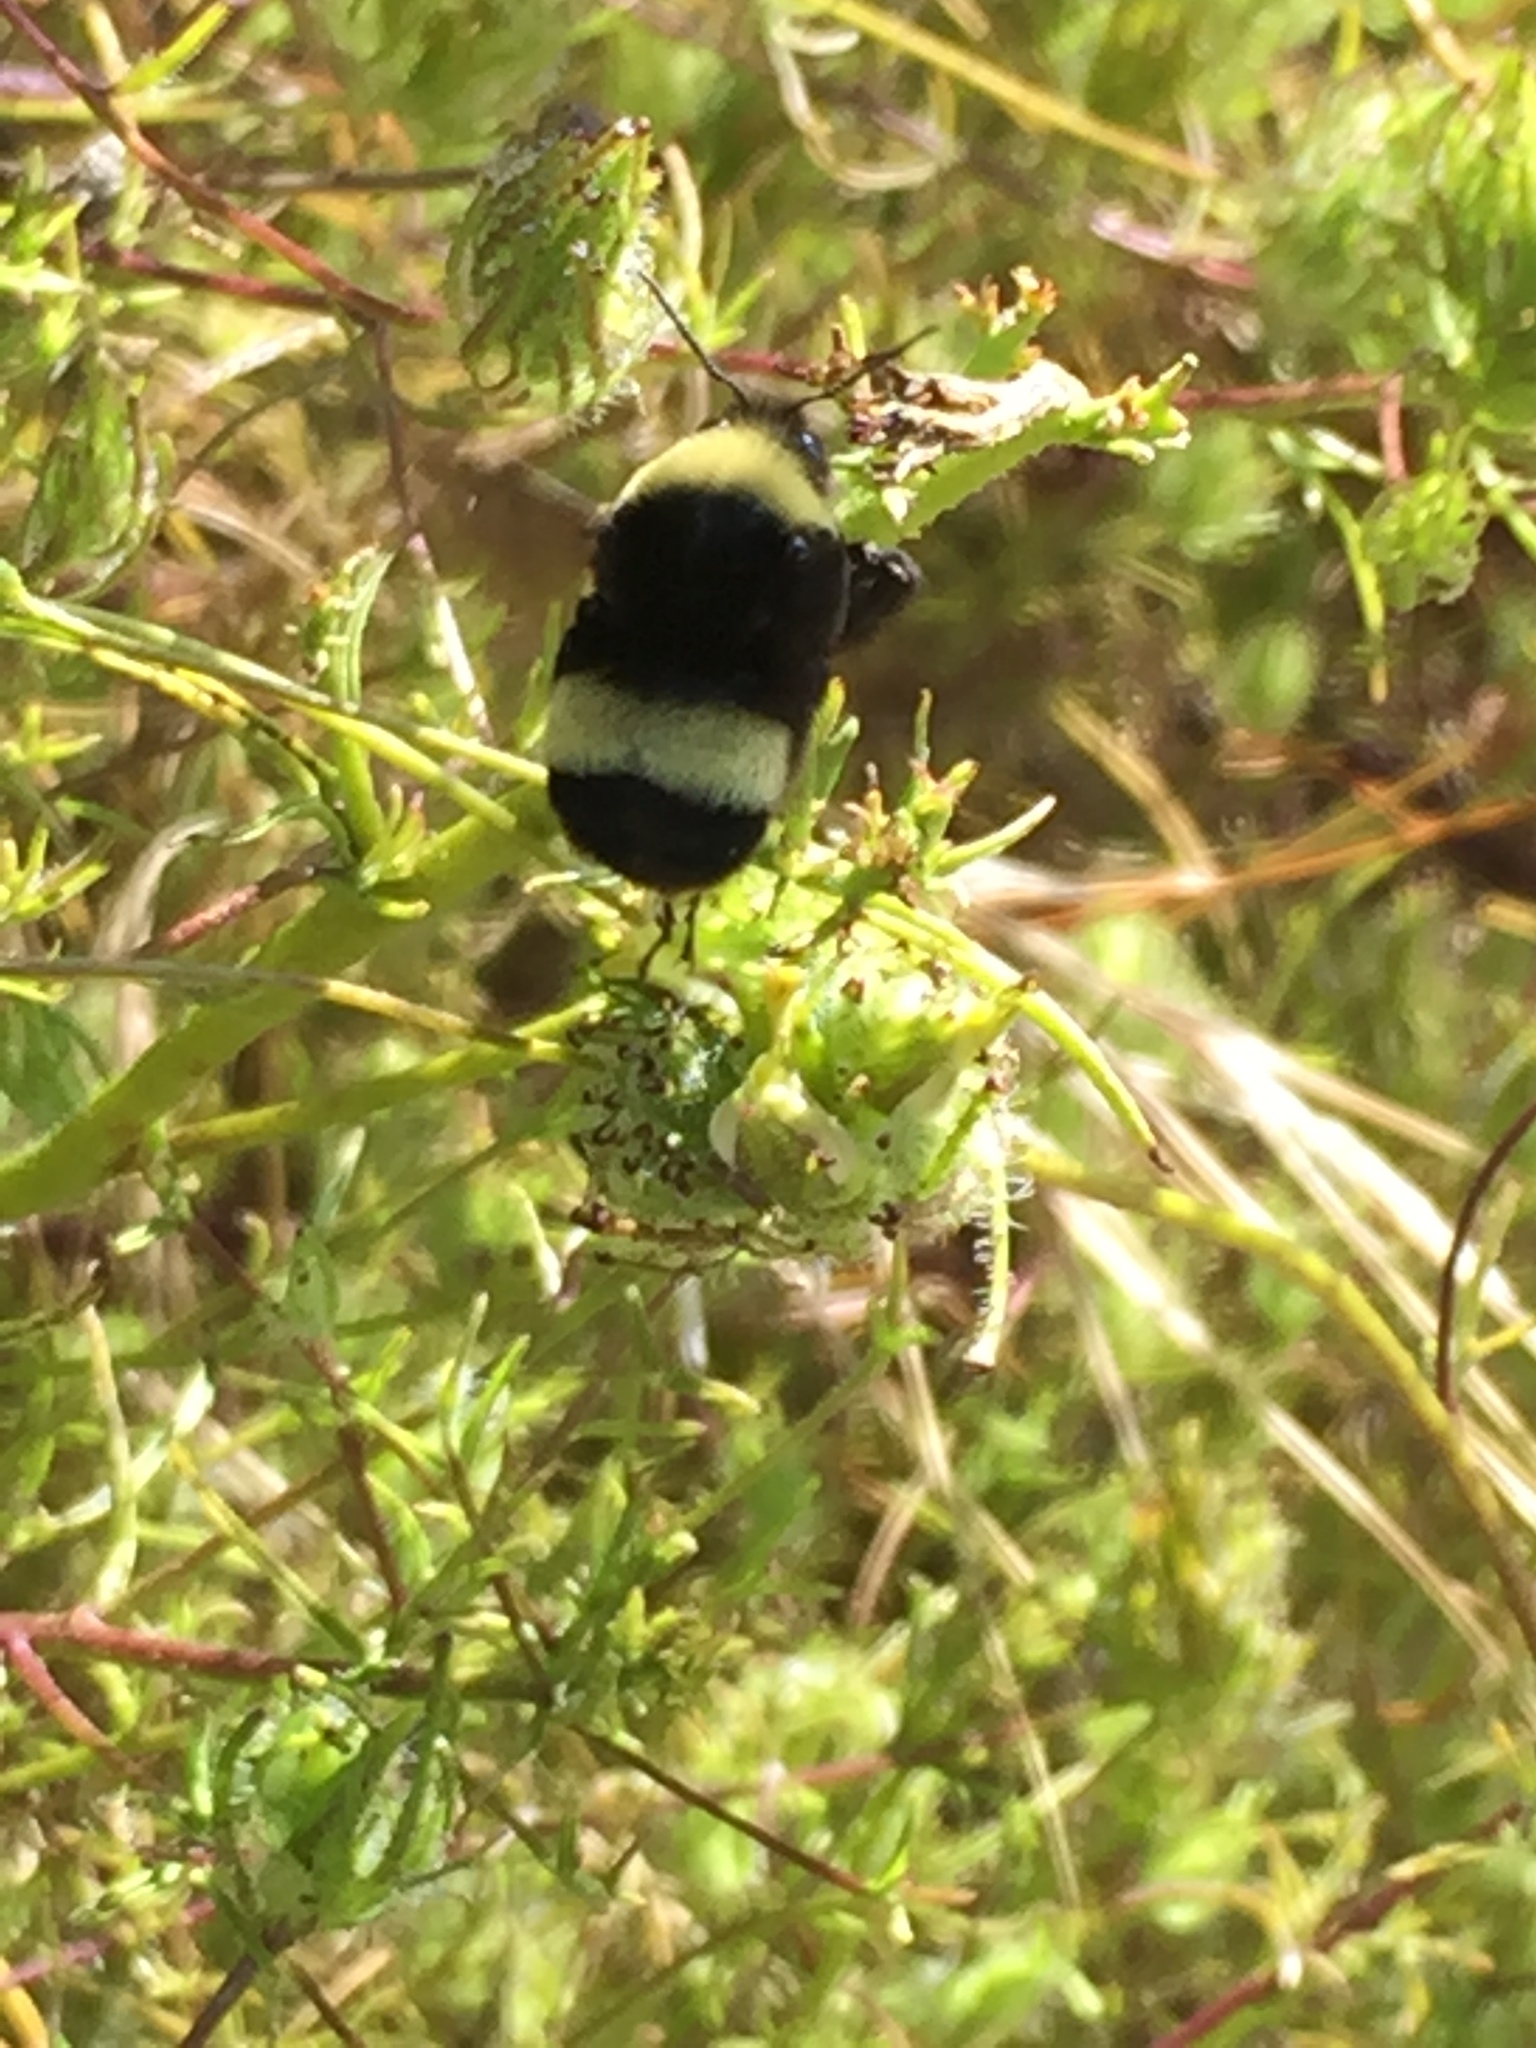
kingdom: Animalia
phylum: Arthropoda
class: Insecta
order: Hymenoptera
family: Apidae
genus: Bombus
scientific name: Bombus crotchii
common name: Crotch bumble bee
